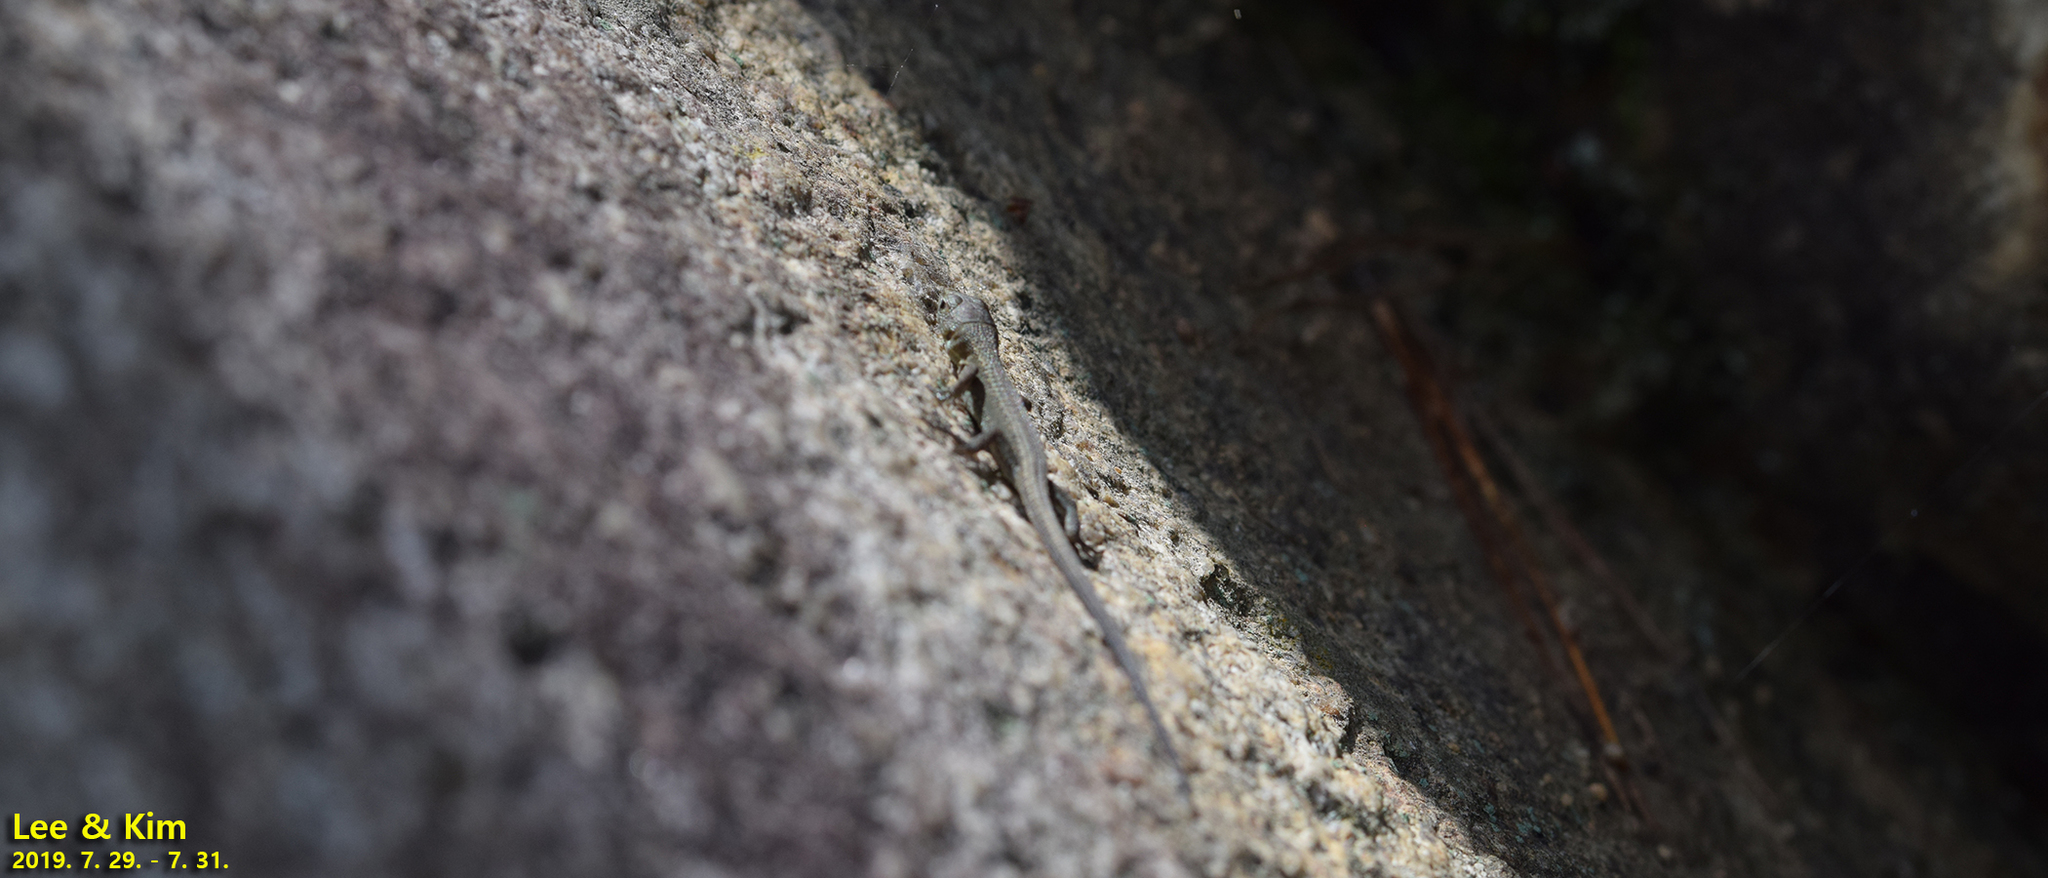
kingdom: Animalia
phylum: Chordata
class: Squamata
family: Lacertidae
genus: Takydromus
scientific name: Takydromus amurensis
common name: Amur grass lizard
